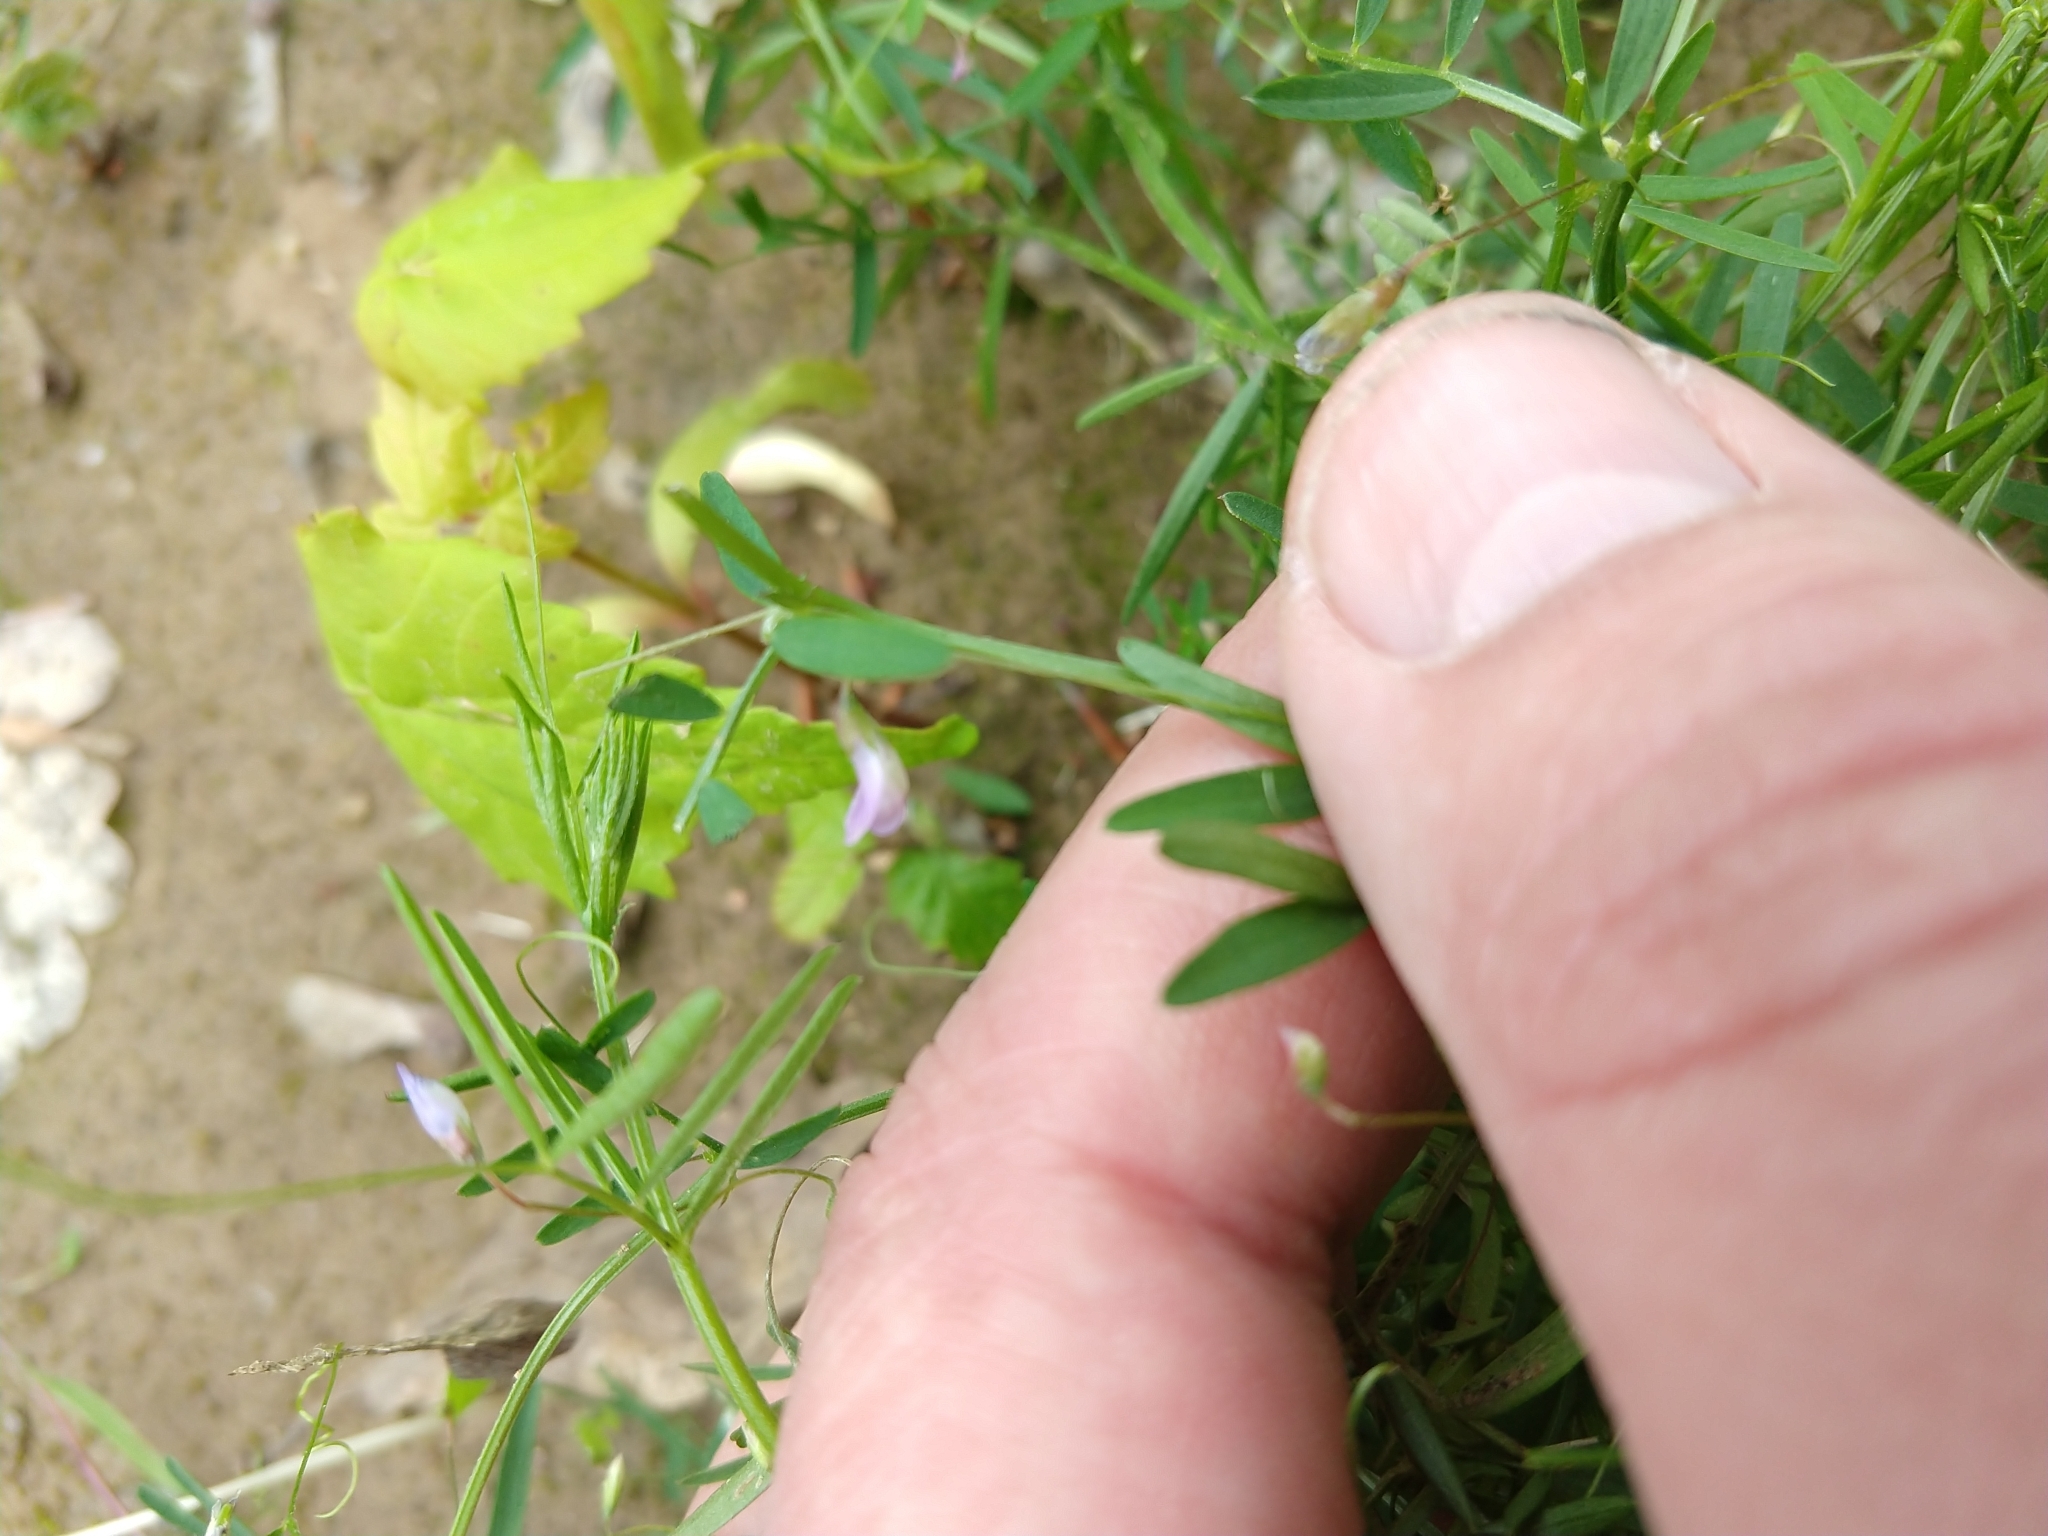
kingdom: Plantae
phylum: Tracheophyta
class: Magnoliopsida
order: Fabales
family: Fabaceae
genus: Vicia
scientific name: Vicia tetrasperma
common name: Smooth tare
